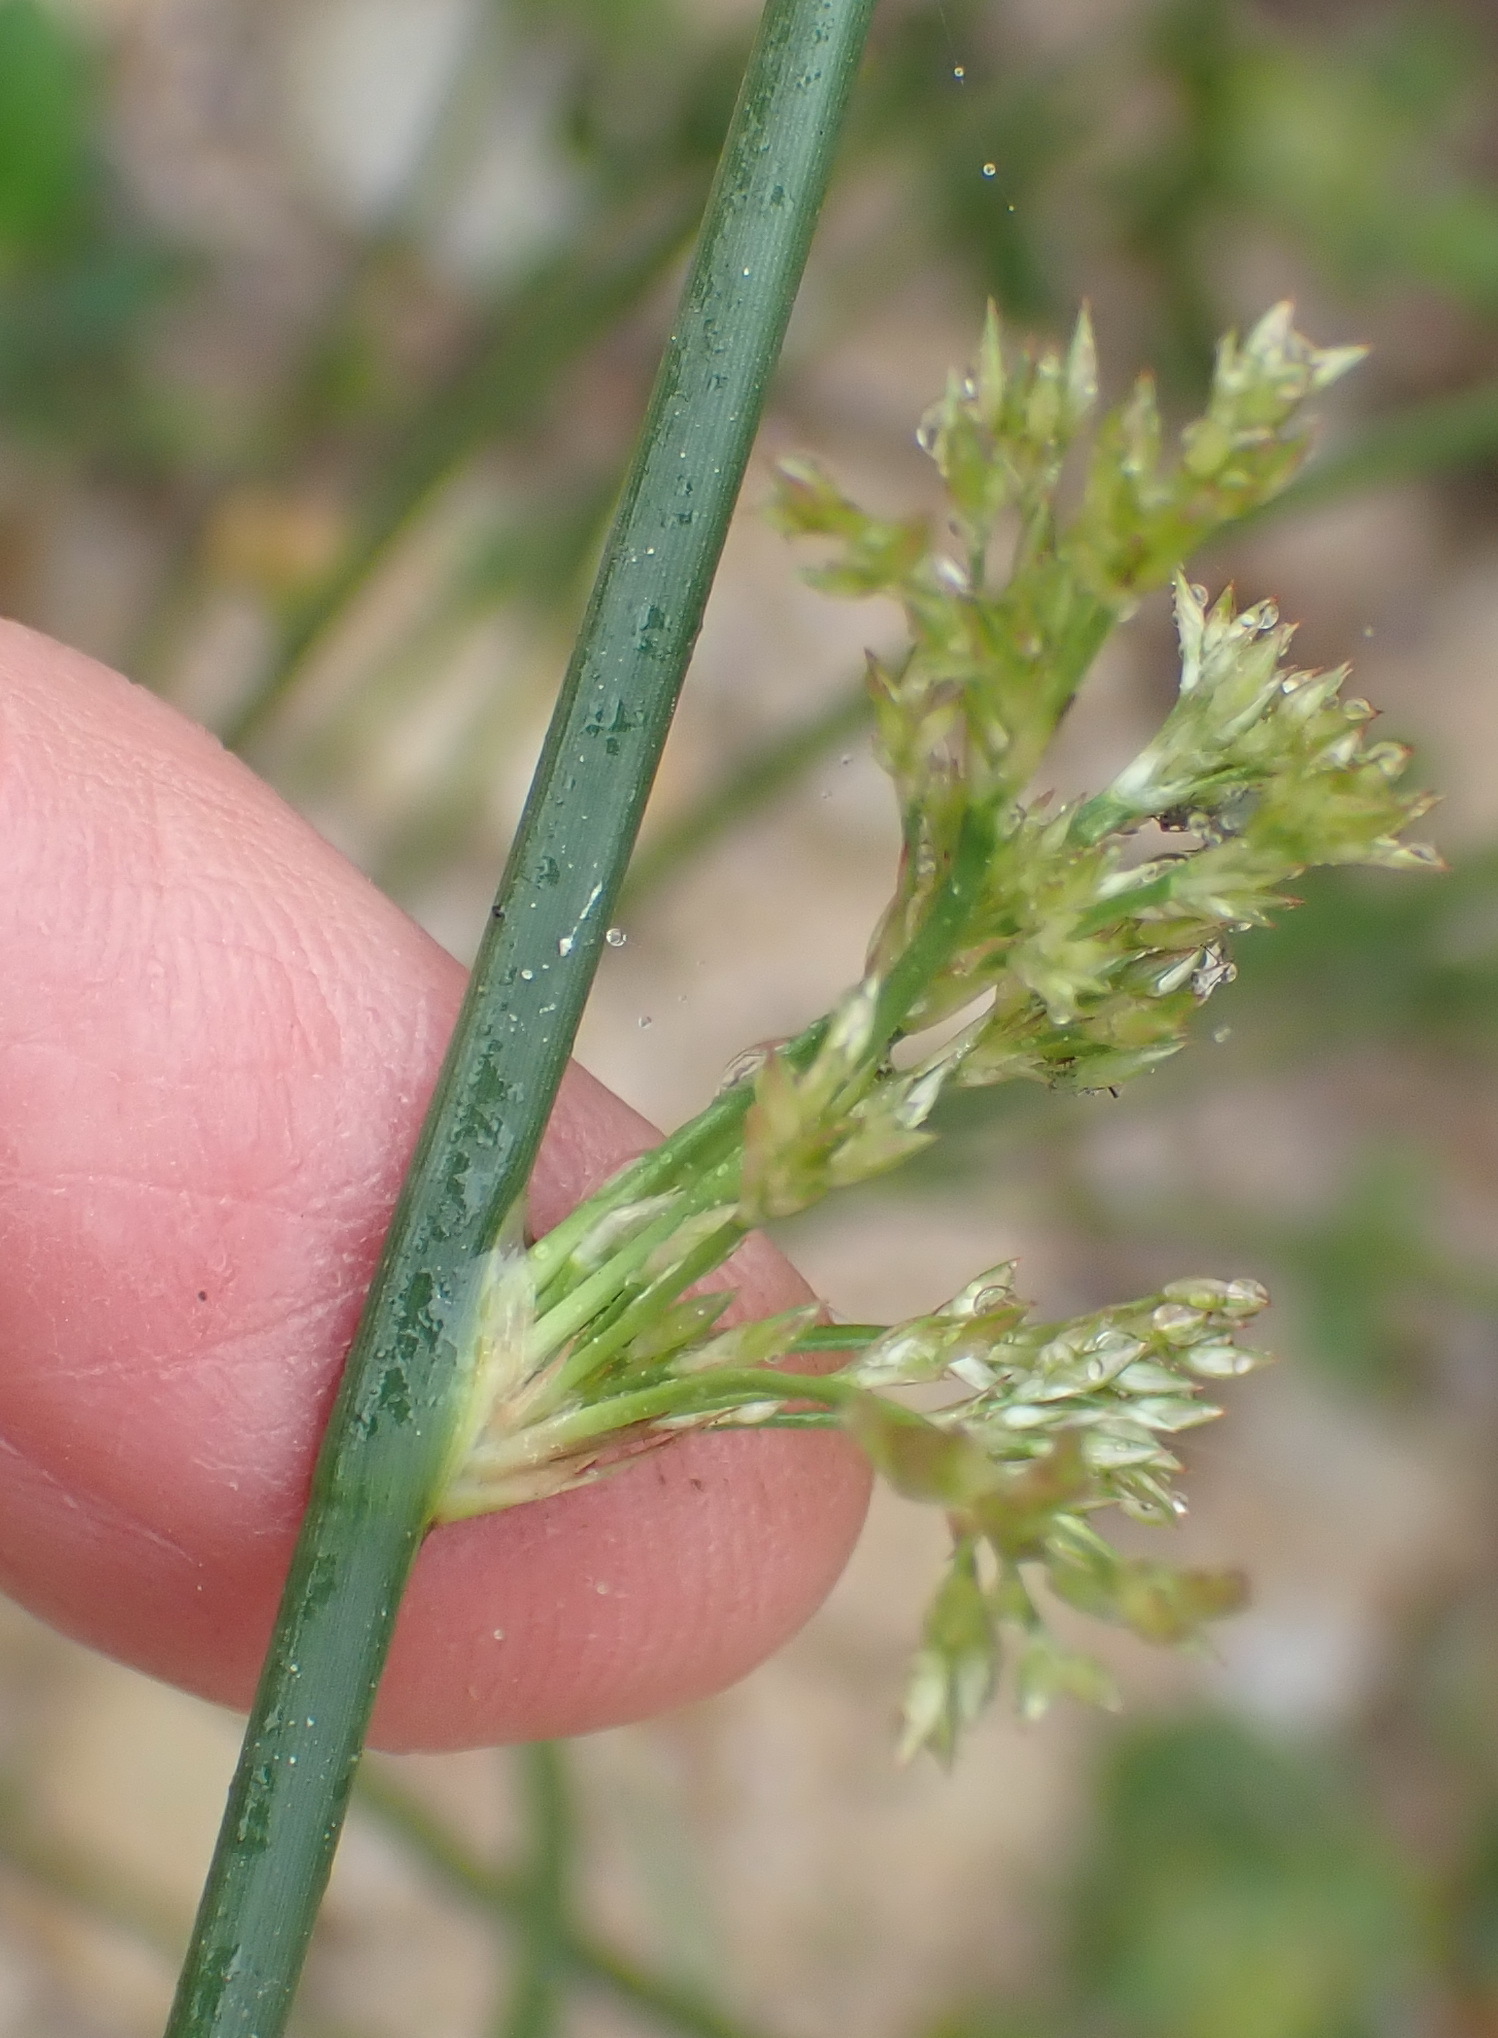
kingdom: Plantae
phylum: Tracheophyta
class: Liliopsida
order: Poales
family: Juncaceae
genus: Juncus
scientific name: Juncus effusus
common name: Soft rush
